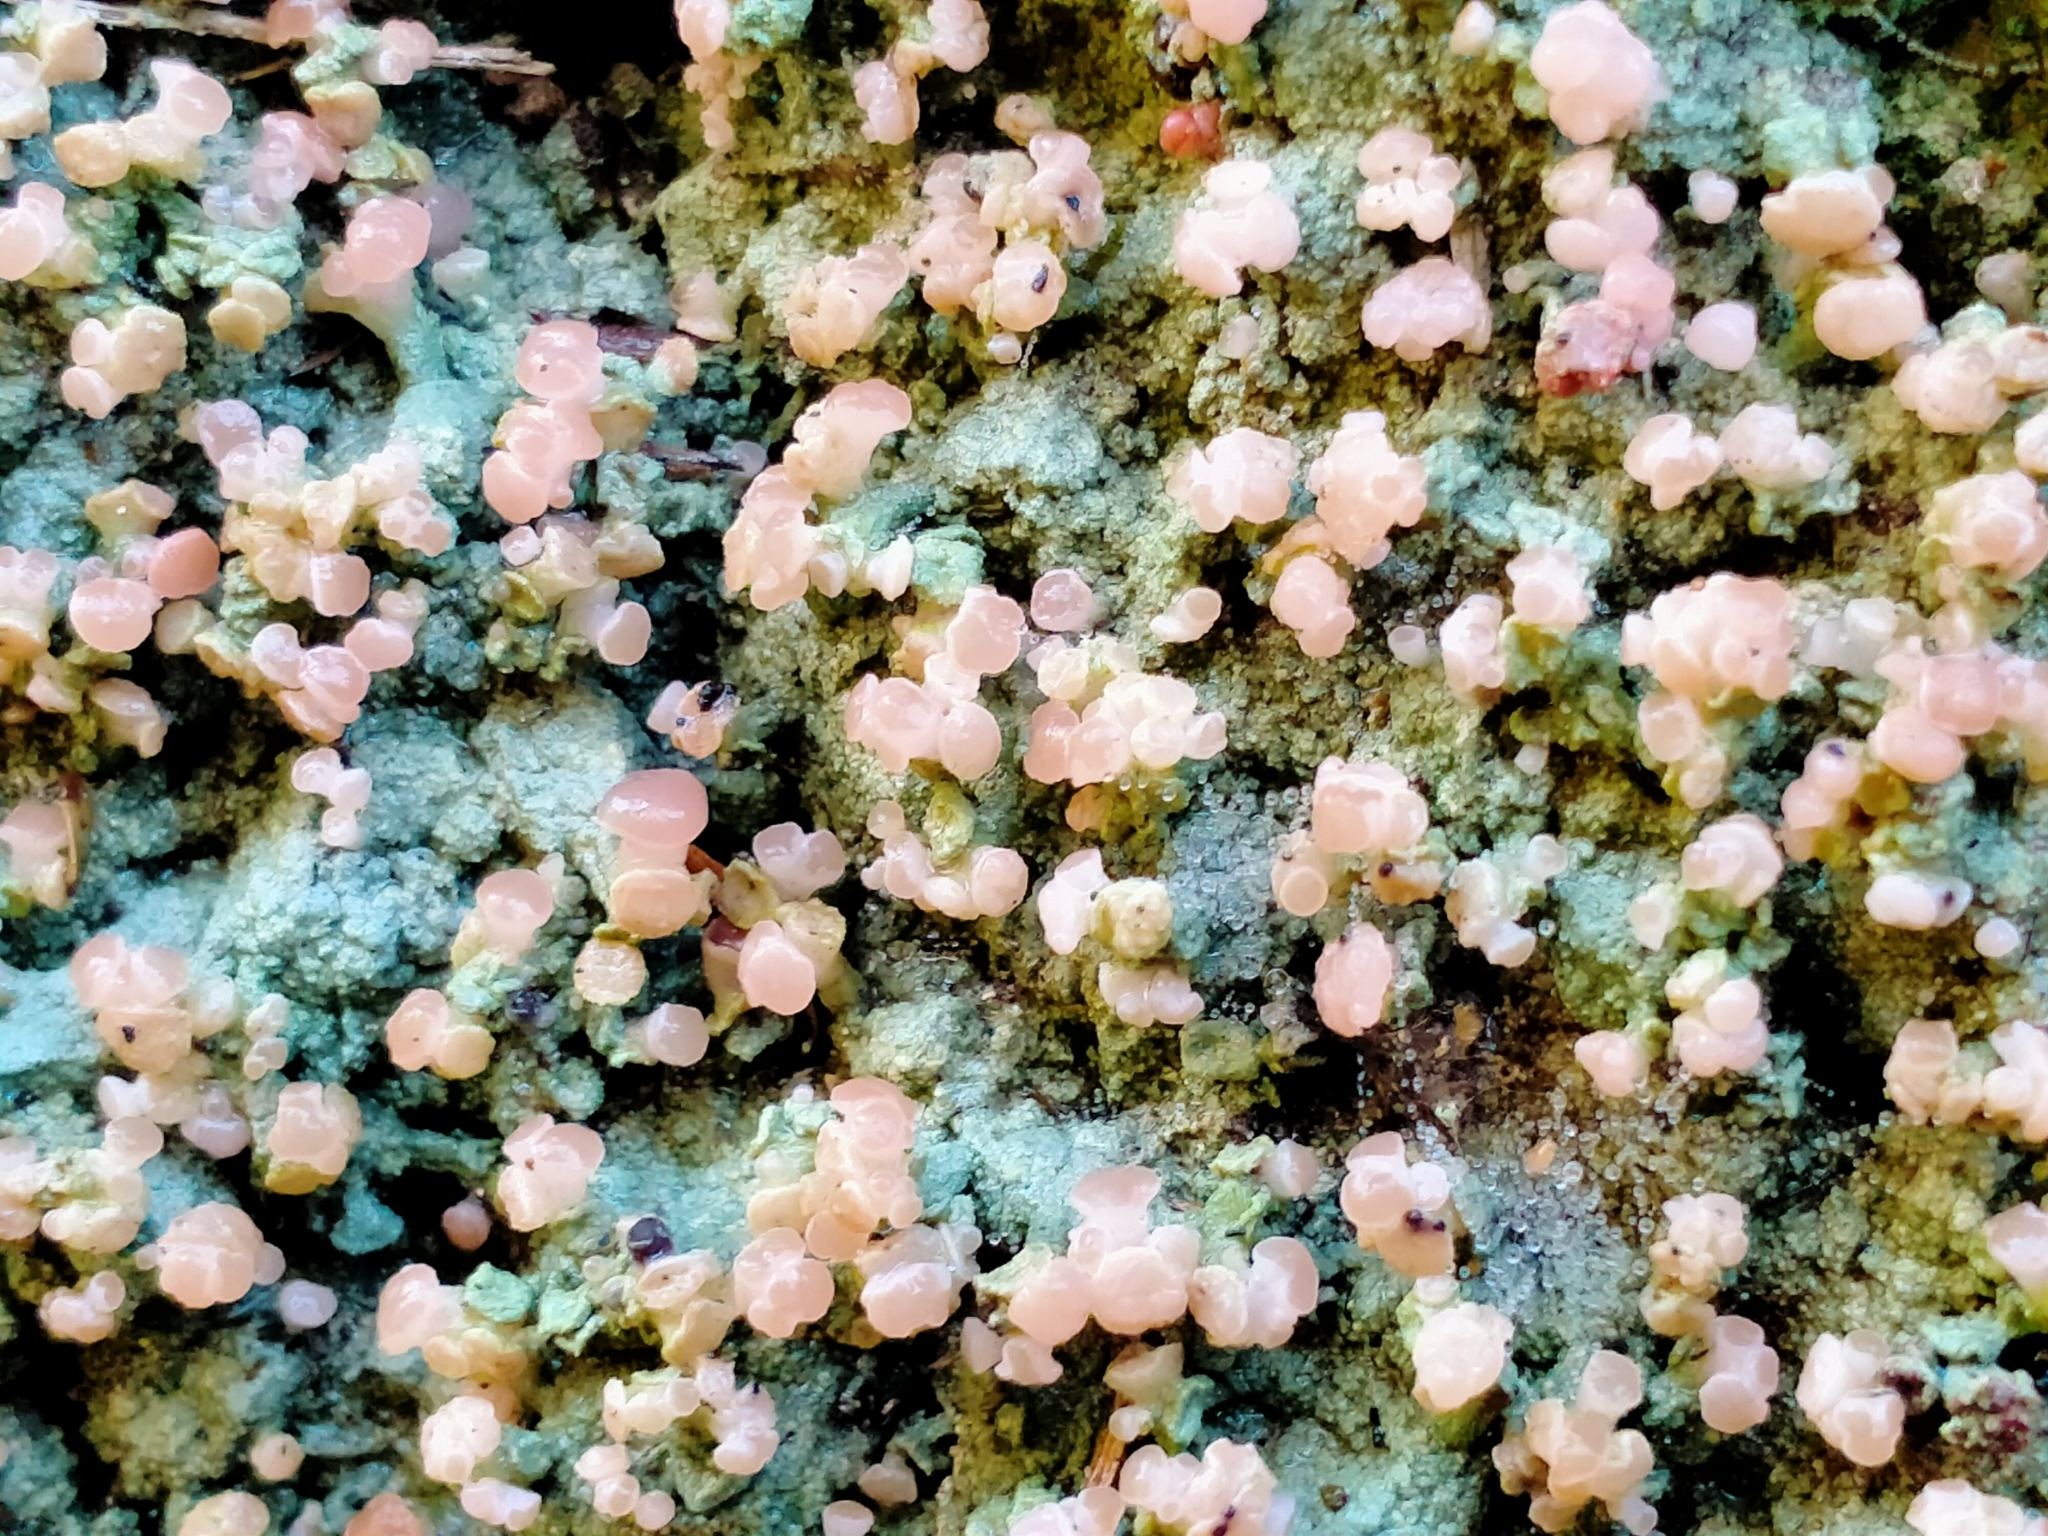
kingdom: Fungi
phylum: Ascomycota
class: Lecanoromycetes
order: Baeomycetales
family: Baeomycetaceae
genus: Baeomyces
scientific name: Baeomyces heteromorphus
